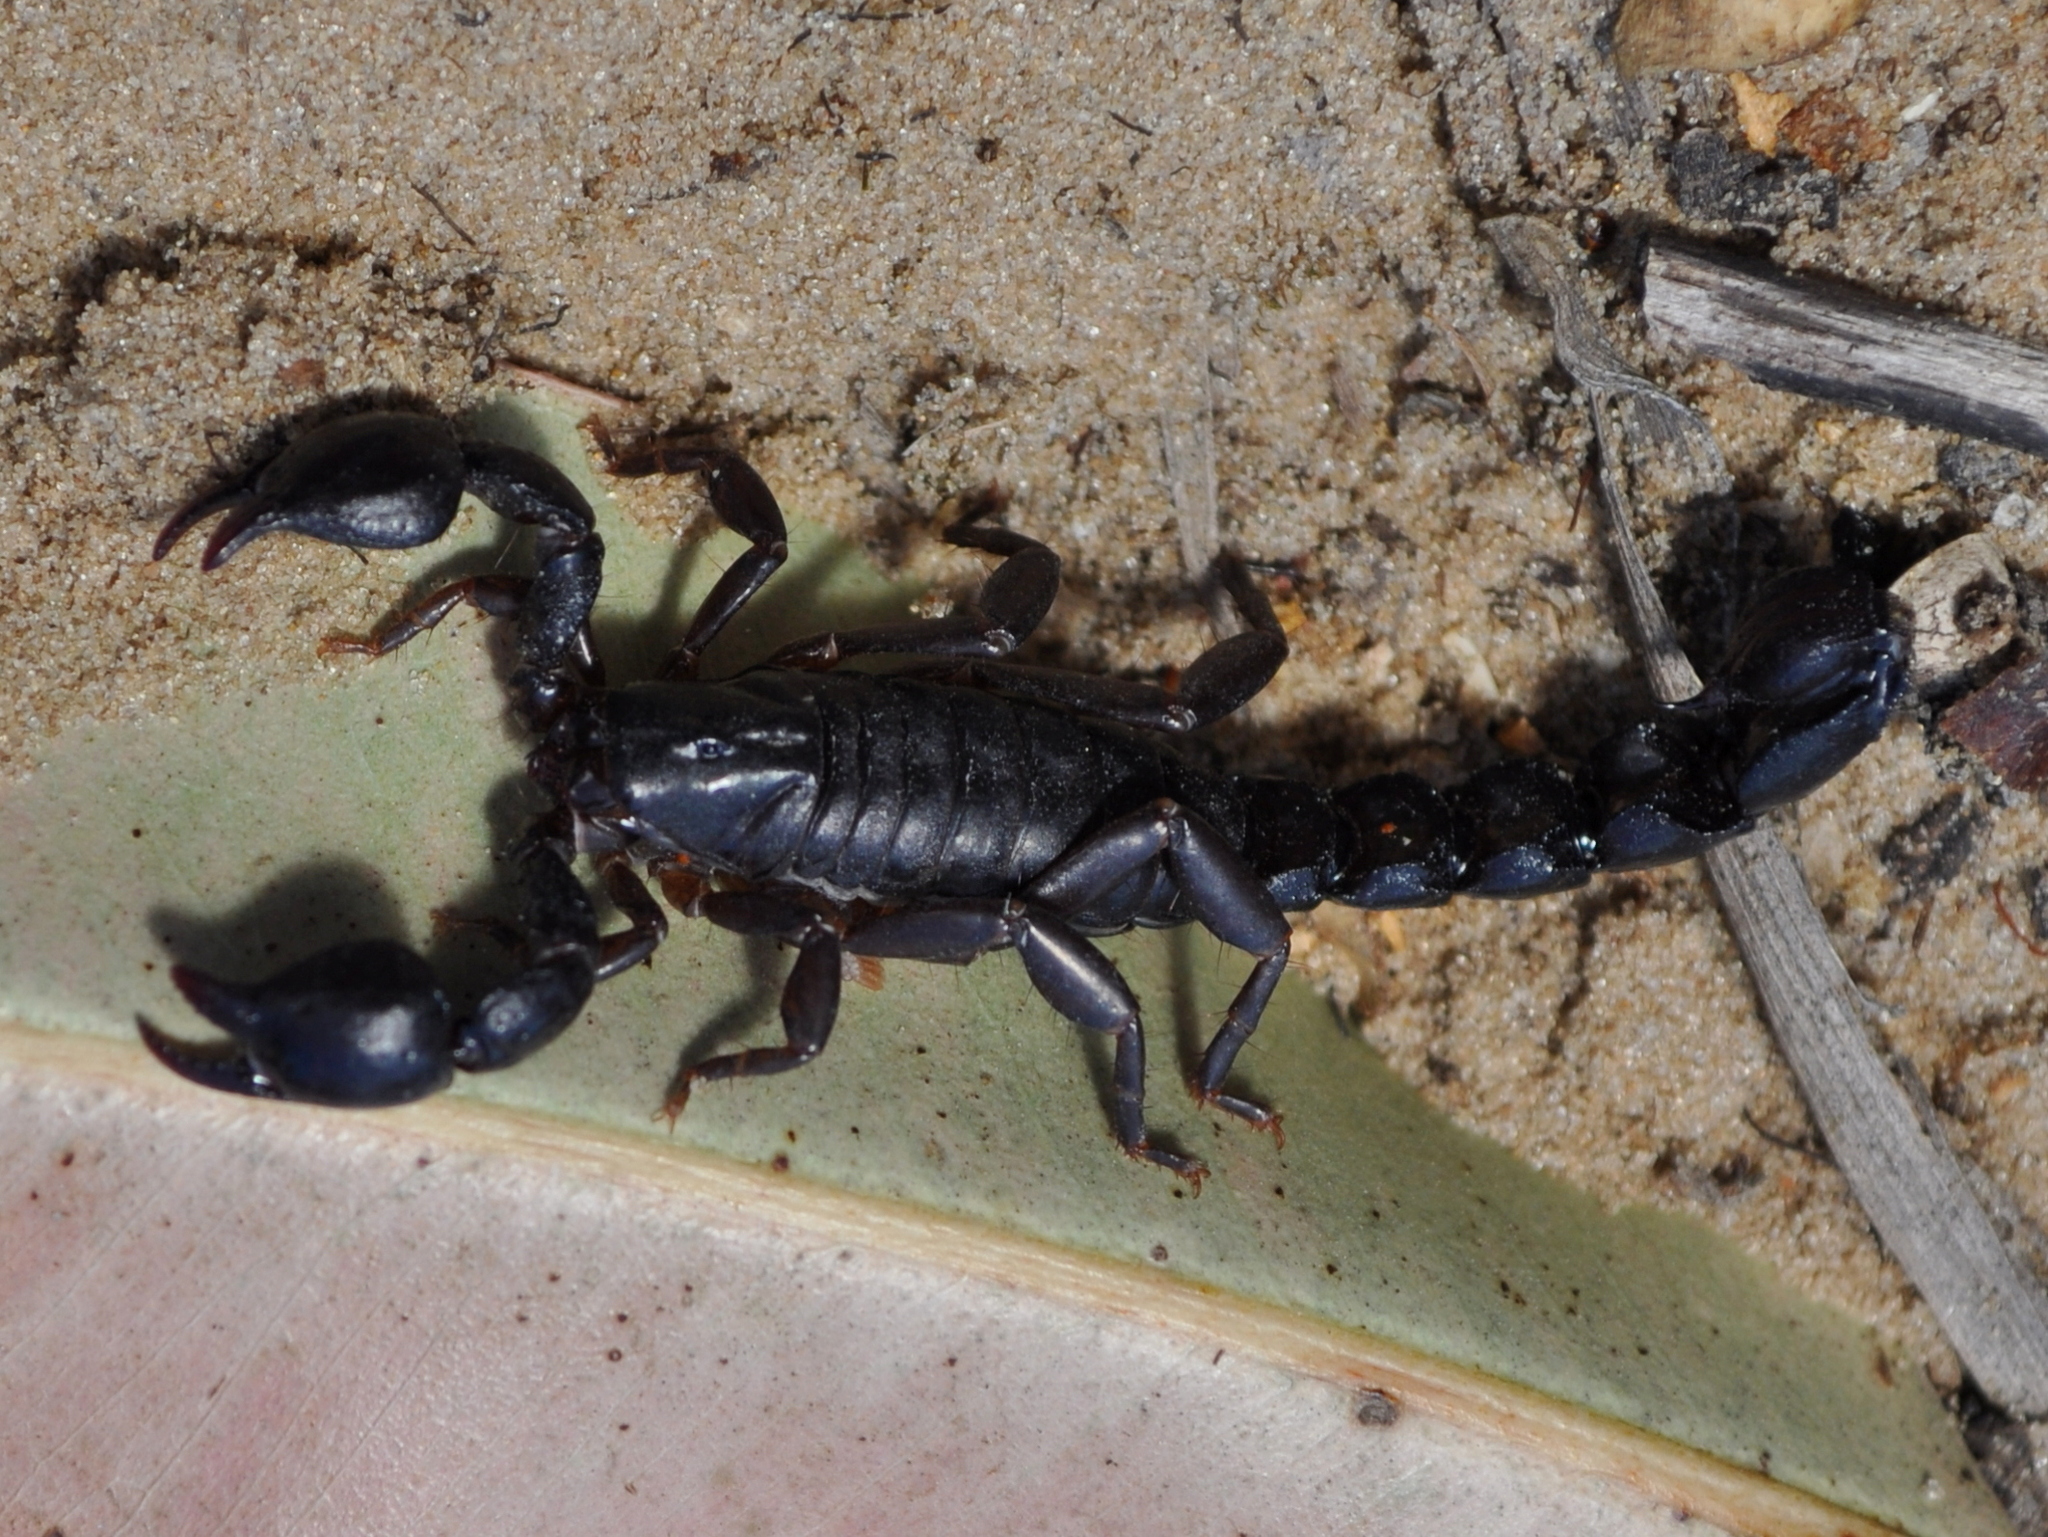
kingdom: Animalia
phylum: Arthropoda
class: Arachnida
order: Scorpiones
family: Bothriuridae
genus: Bothriurus
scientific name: Bothriurus bonariensis
